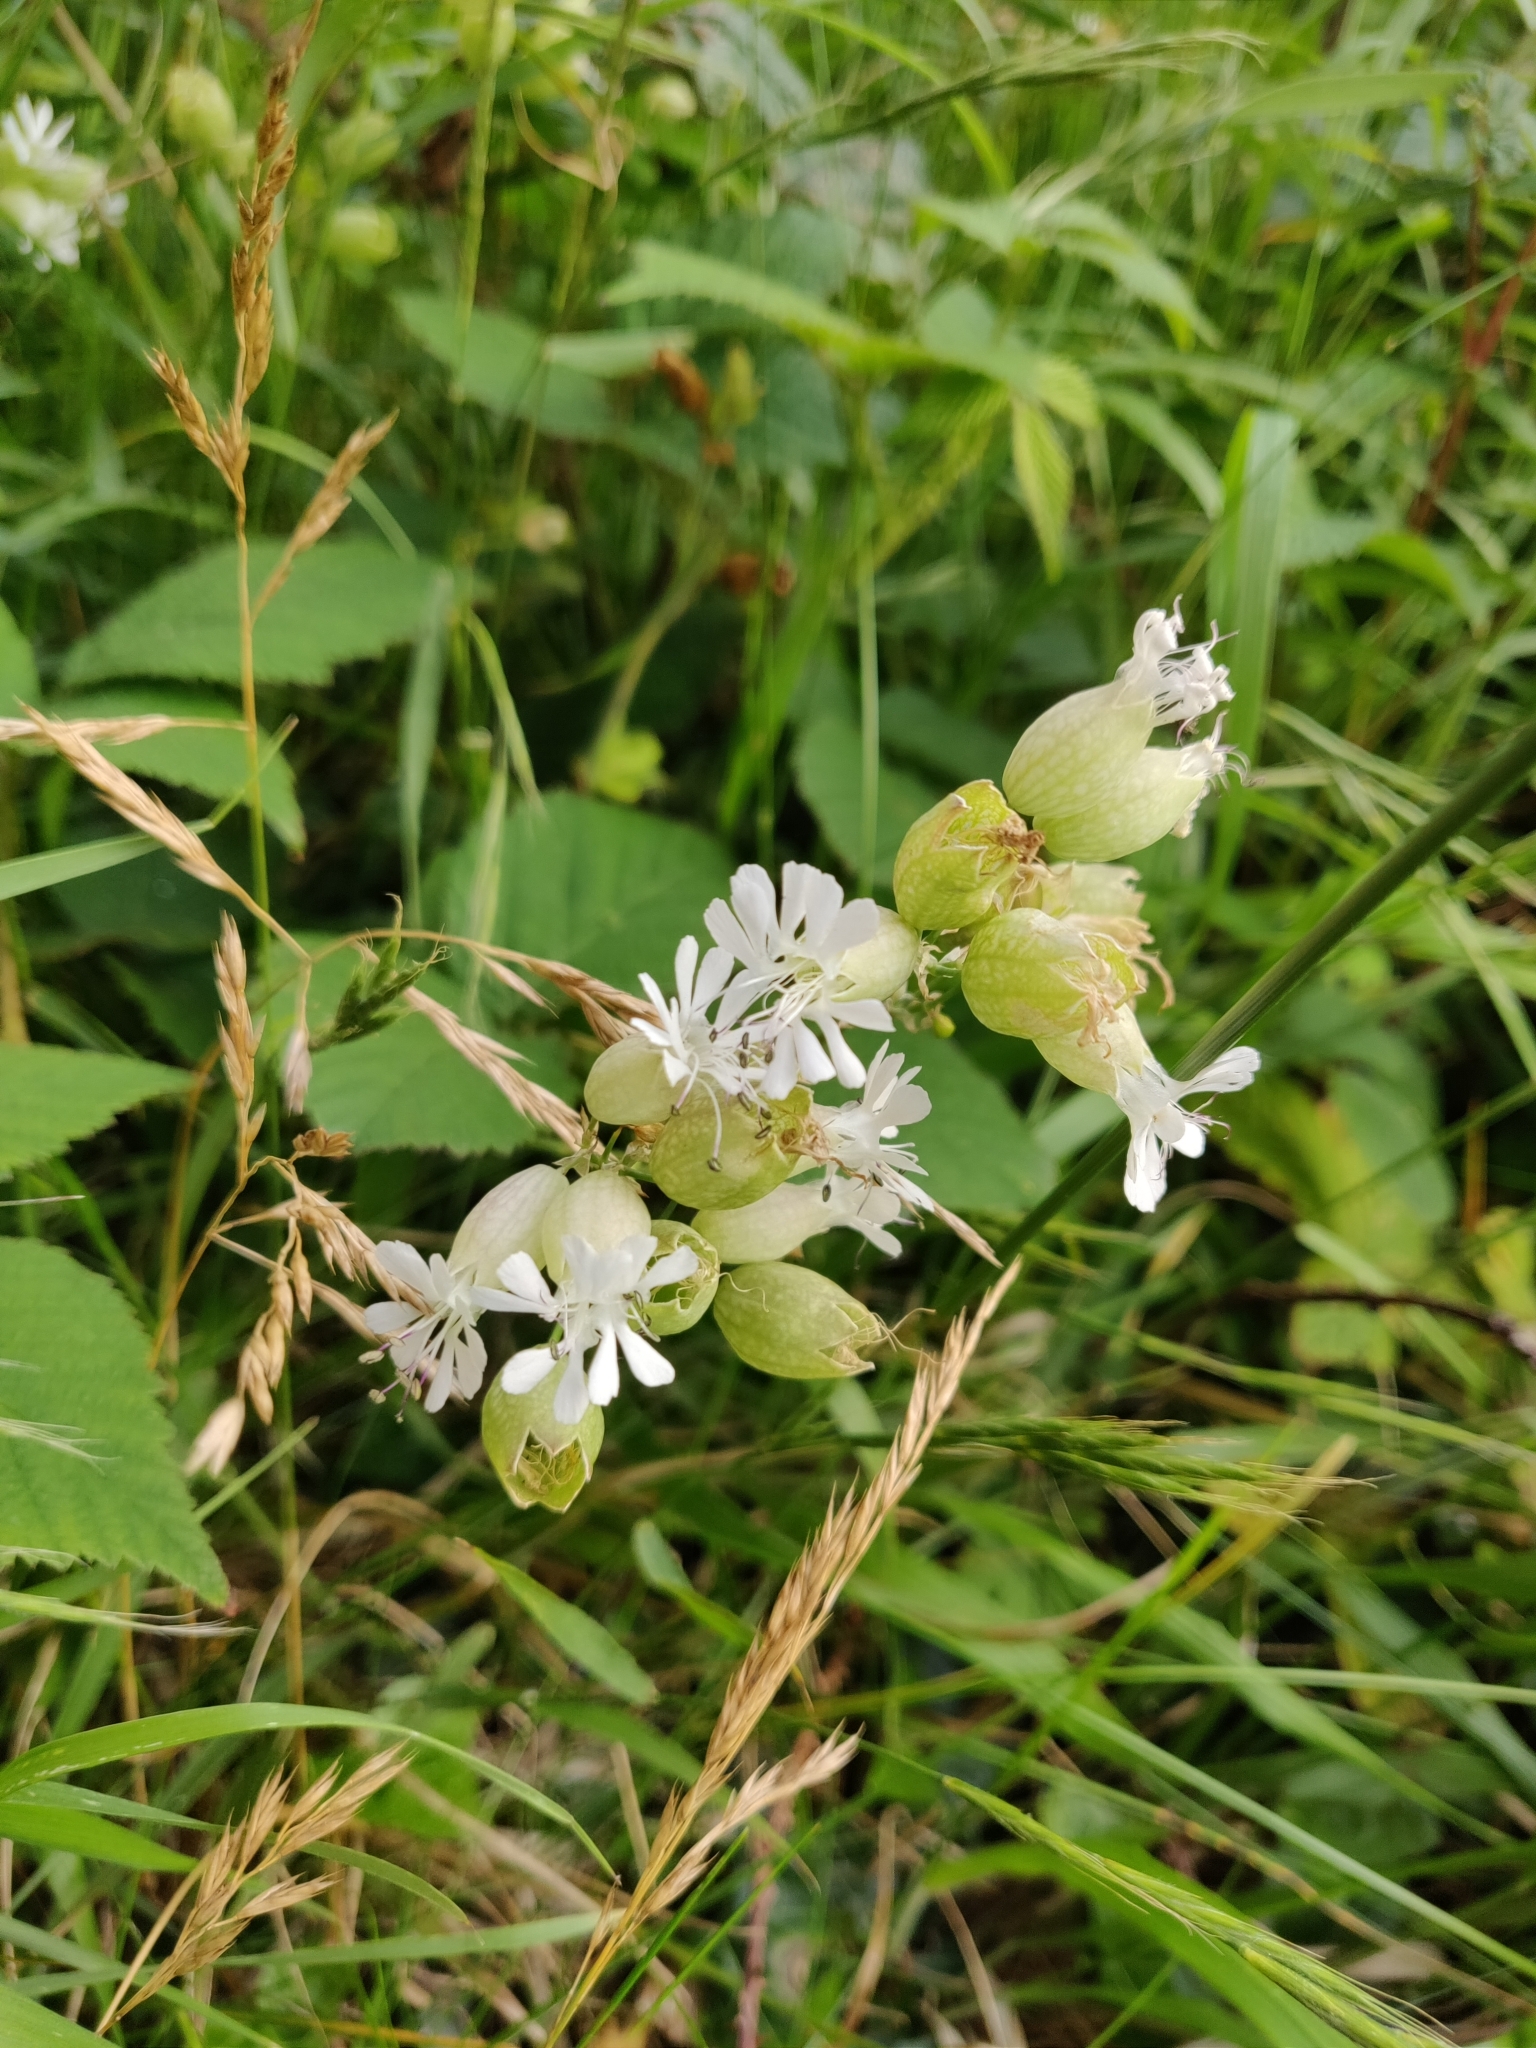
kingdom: Plantae
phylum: Tracheophyta
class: Magnoliopsida
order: Caryophyllales
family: Caryophyllaceae
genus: Silene
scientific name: Silene vulgaris
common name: Bladder campion
